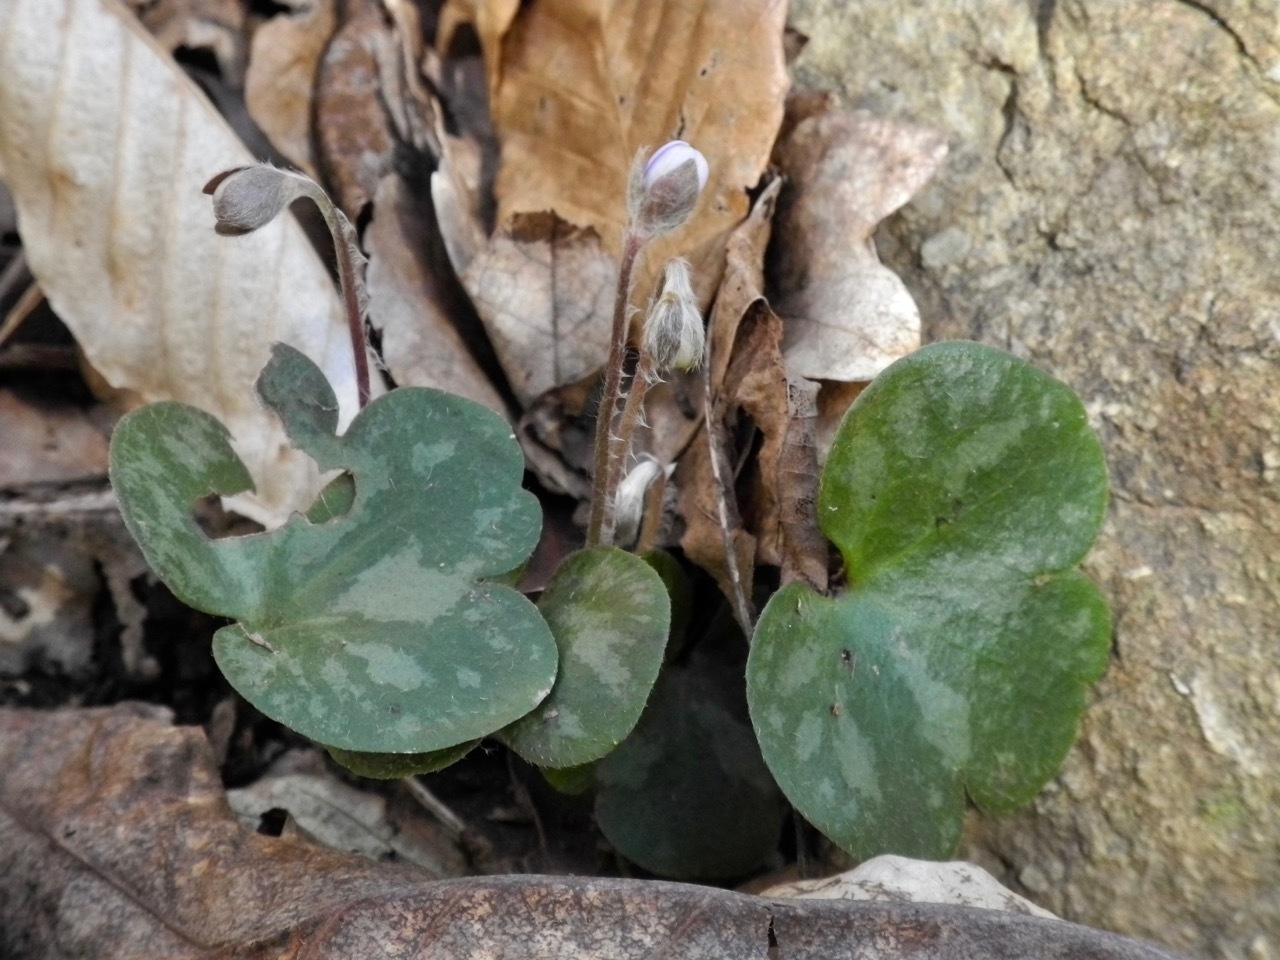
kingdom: Plantae
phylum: Tracheophyta
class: Magnoliopsida
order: Ranunculales
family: Ranunculaceae
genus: Hepatica
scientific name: Hepatica americana
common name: American hepatica
